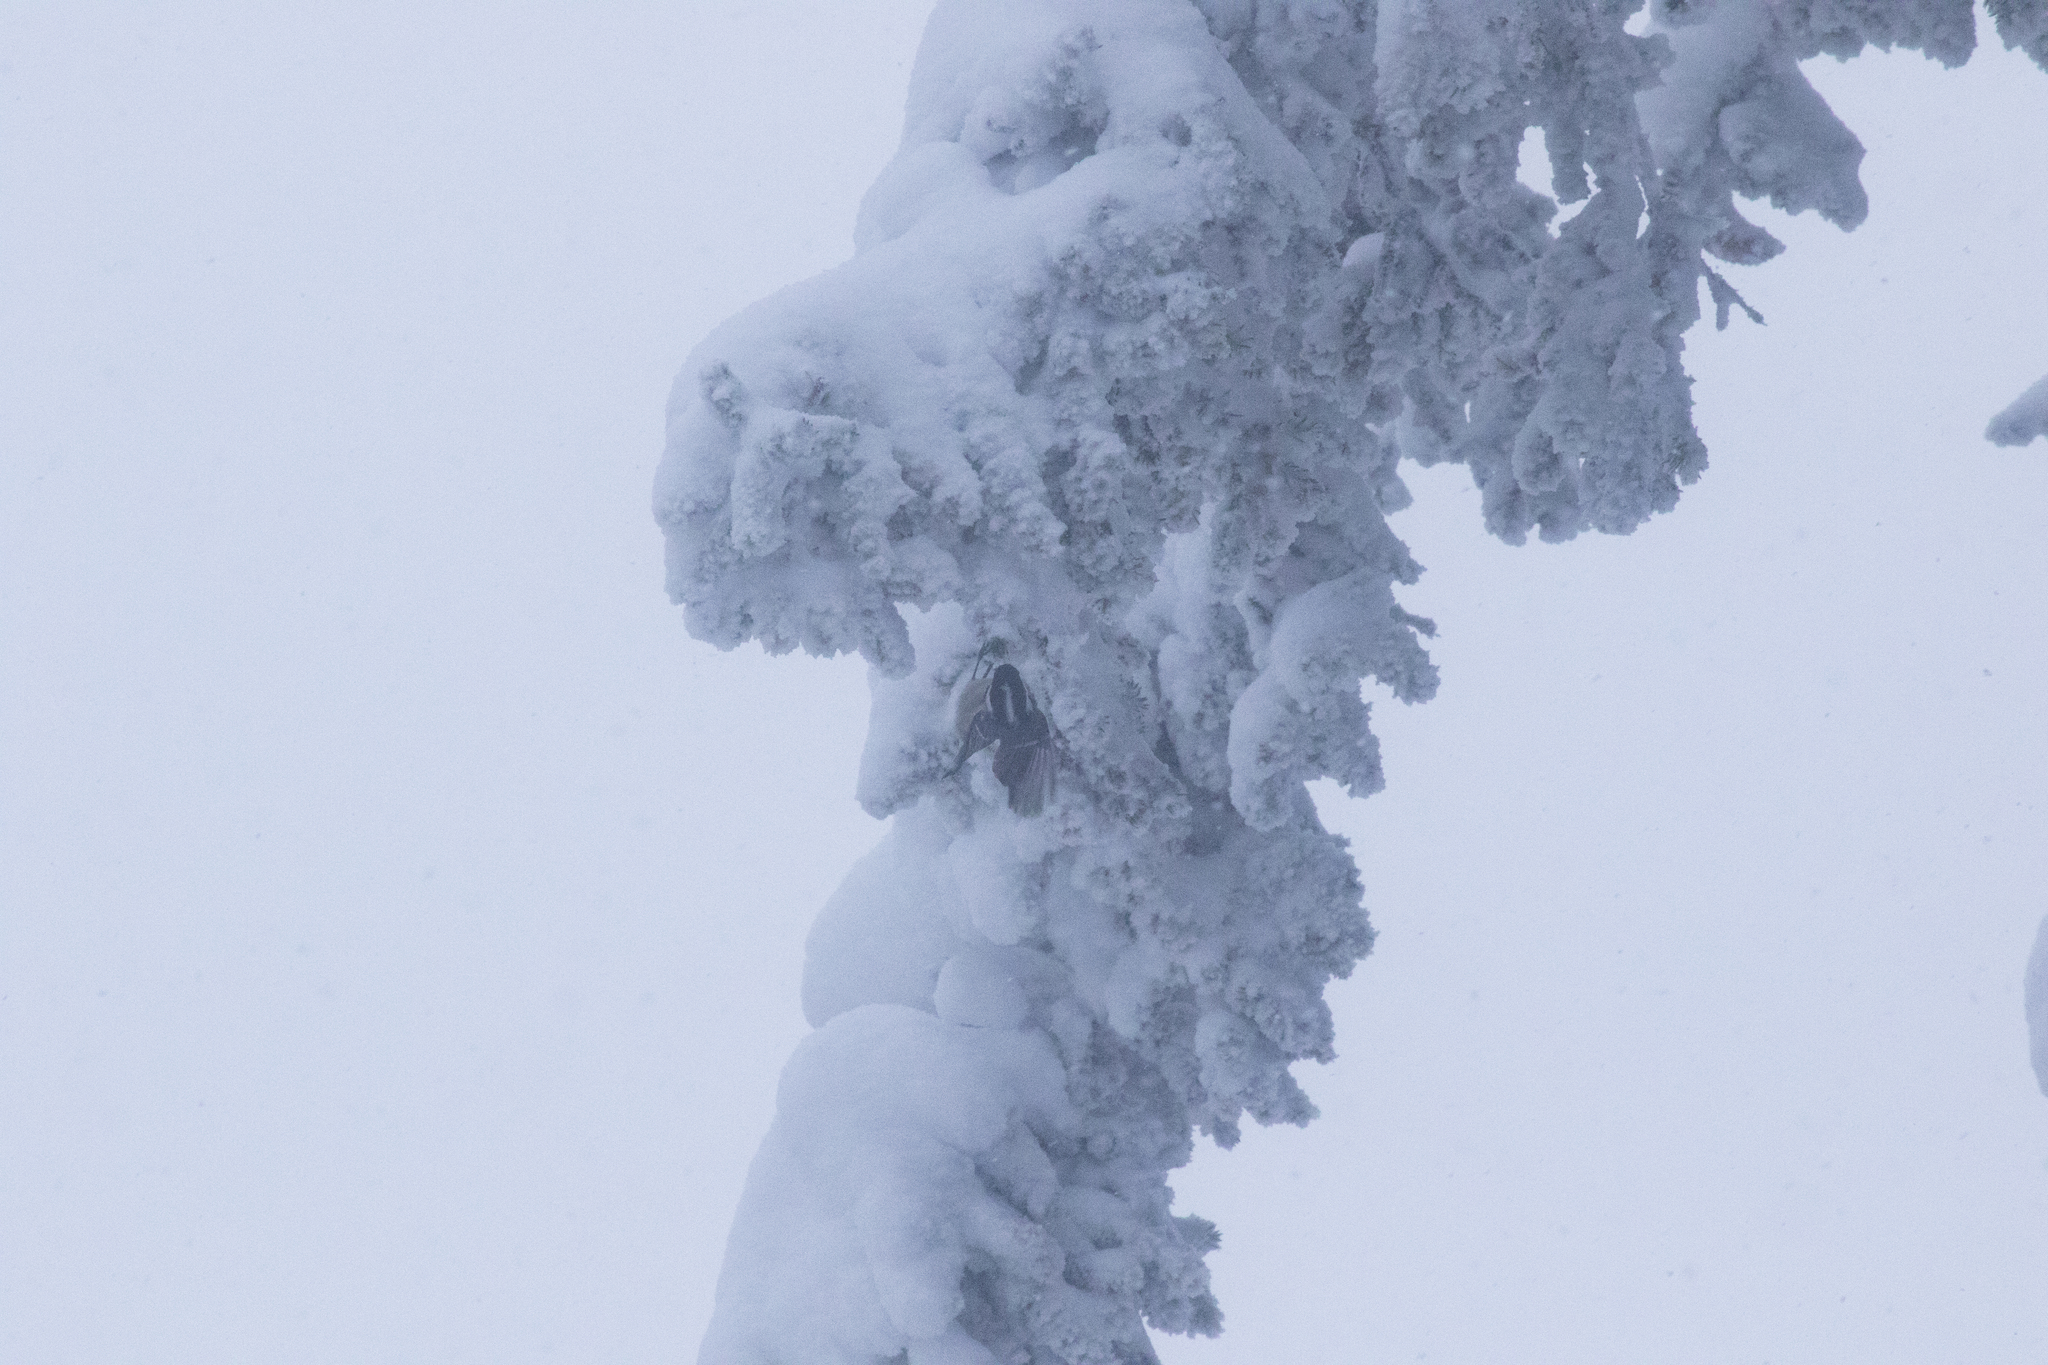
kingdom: Animalia
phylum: Chordata
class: Aves
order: Passeriformes
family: Paridae
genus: Periparus
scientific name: Periparus ater
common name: Coal tit
